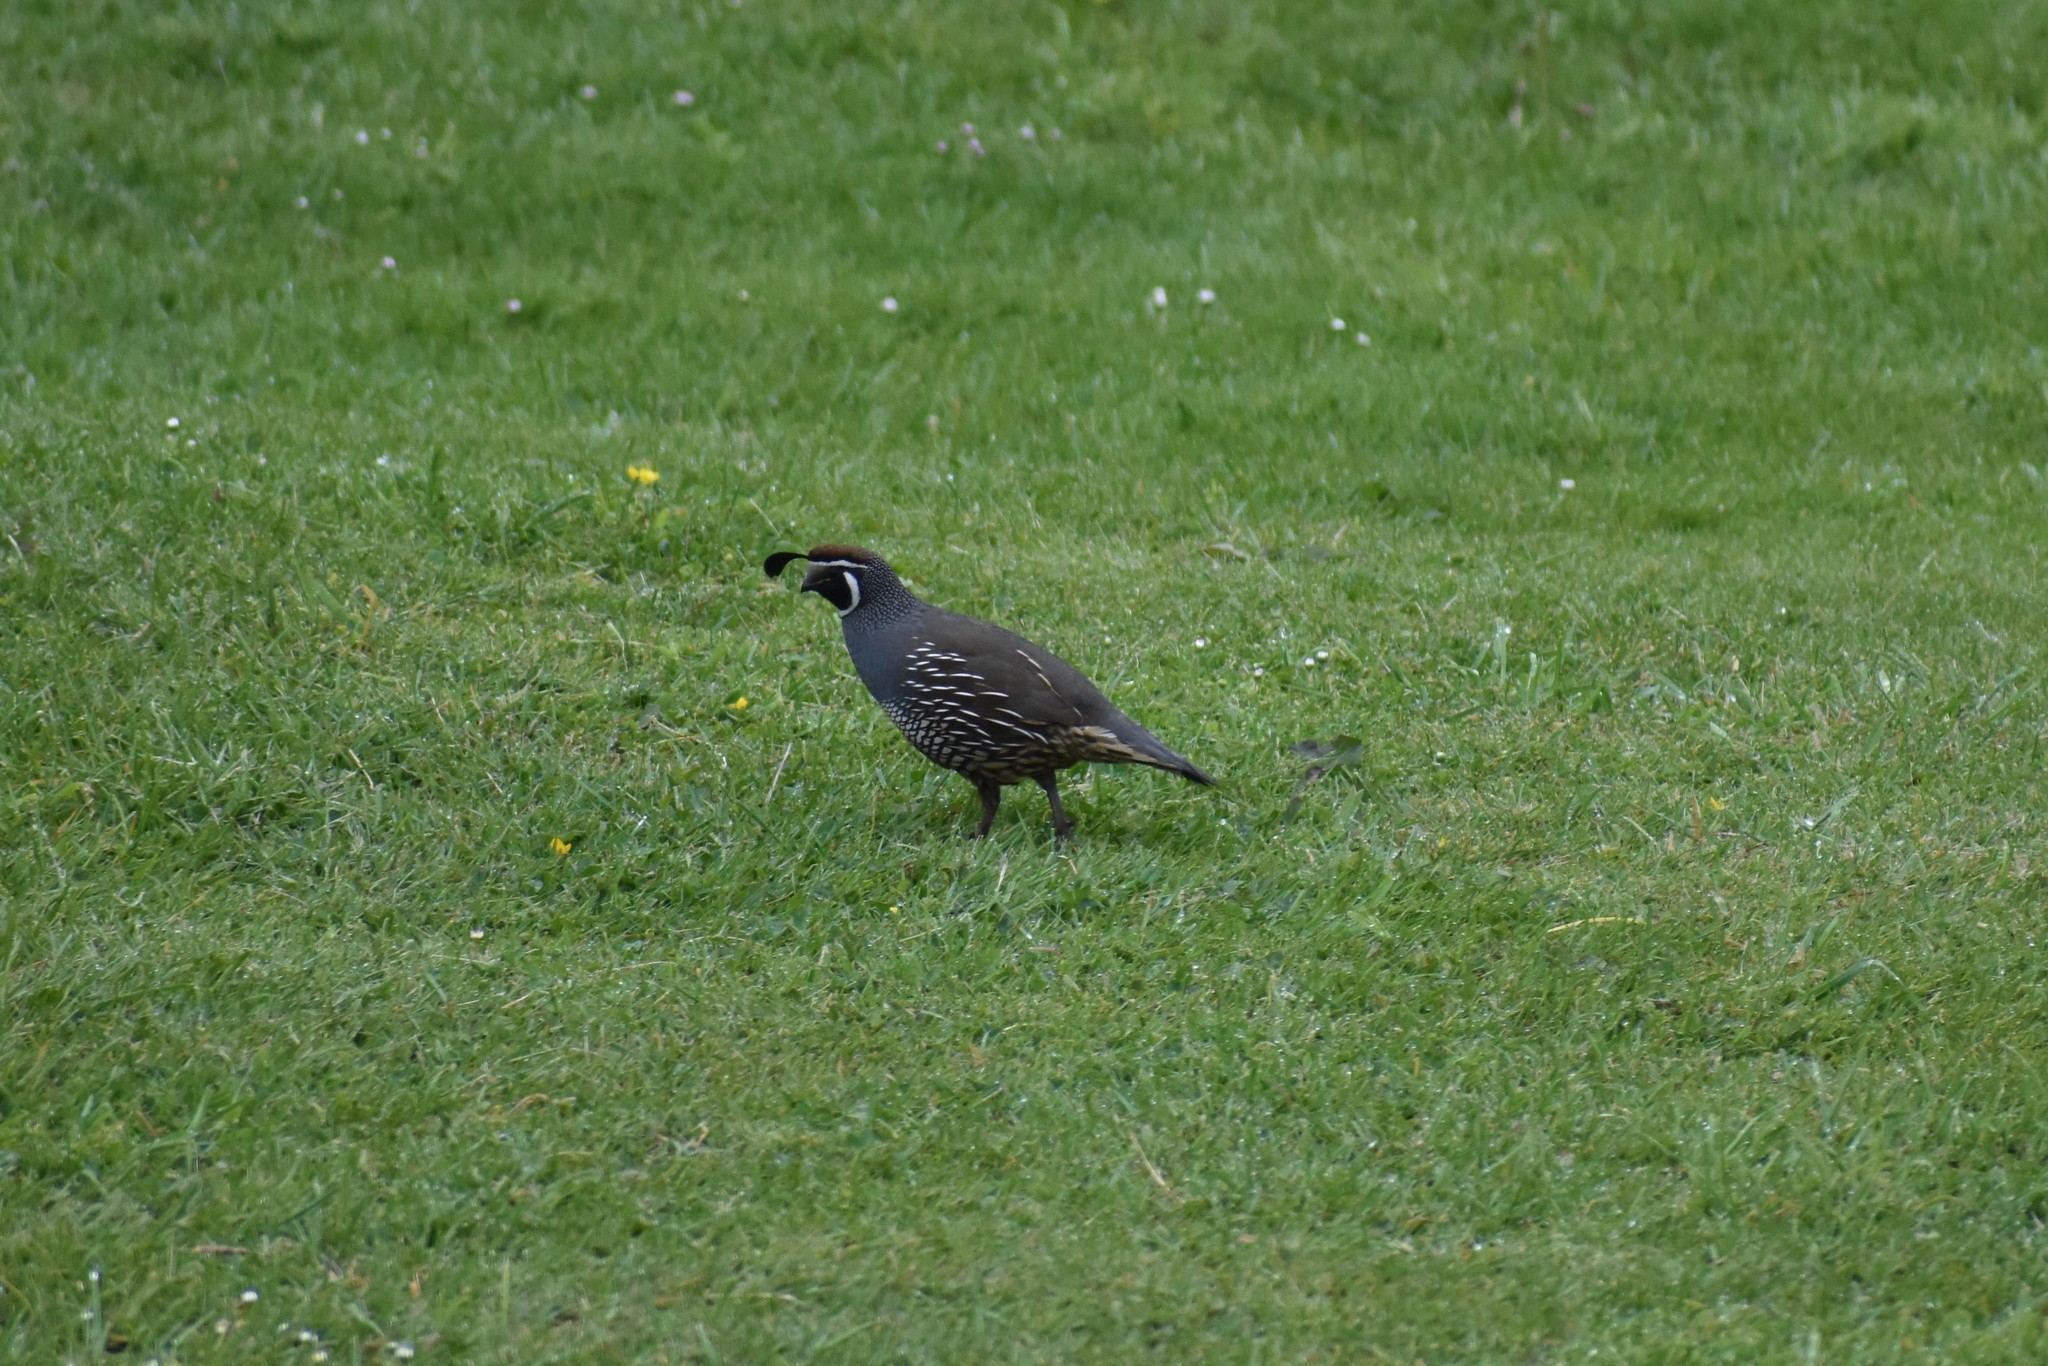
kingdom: Animalia
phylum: Chordata
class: Aves
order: Galliformes
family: Odontophoridae
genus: Callipepla
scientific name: Callipepla californica
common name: California quail
